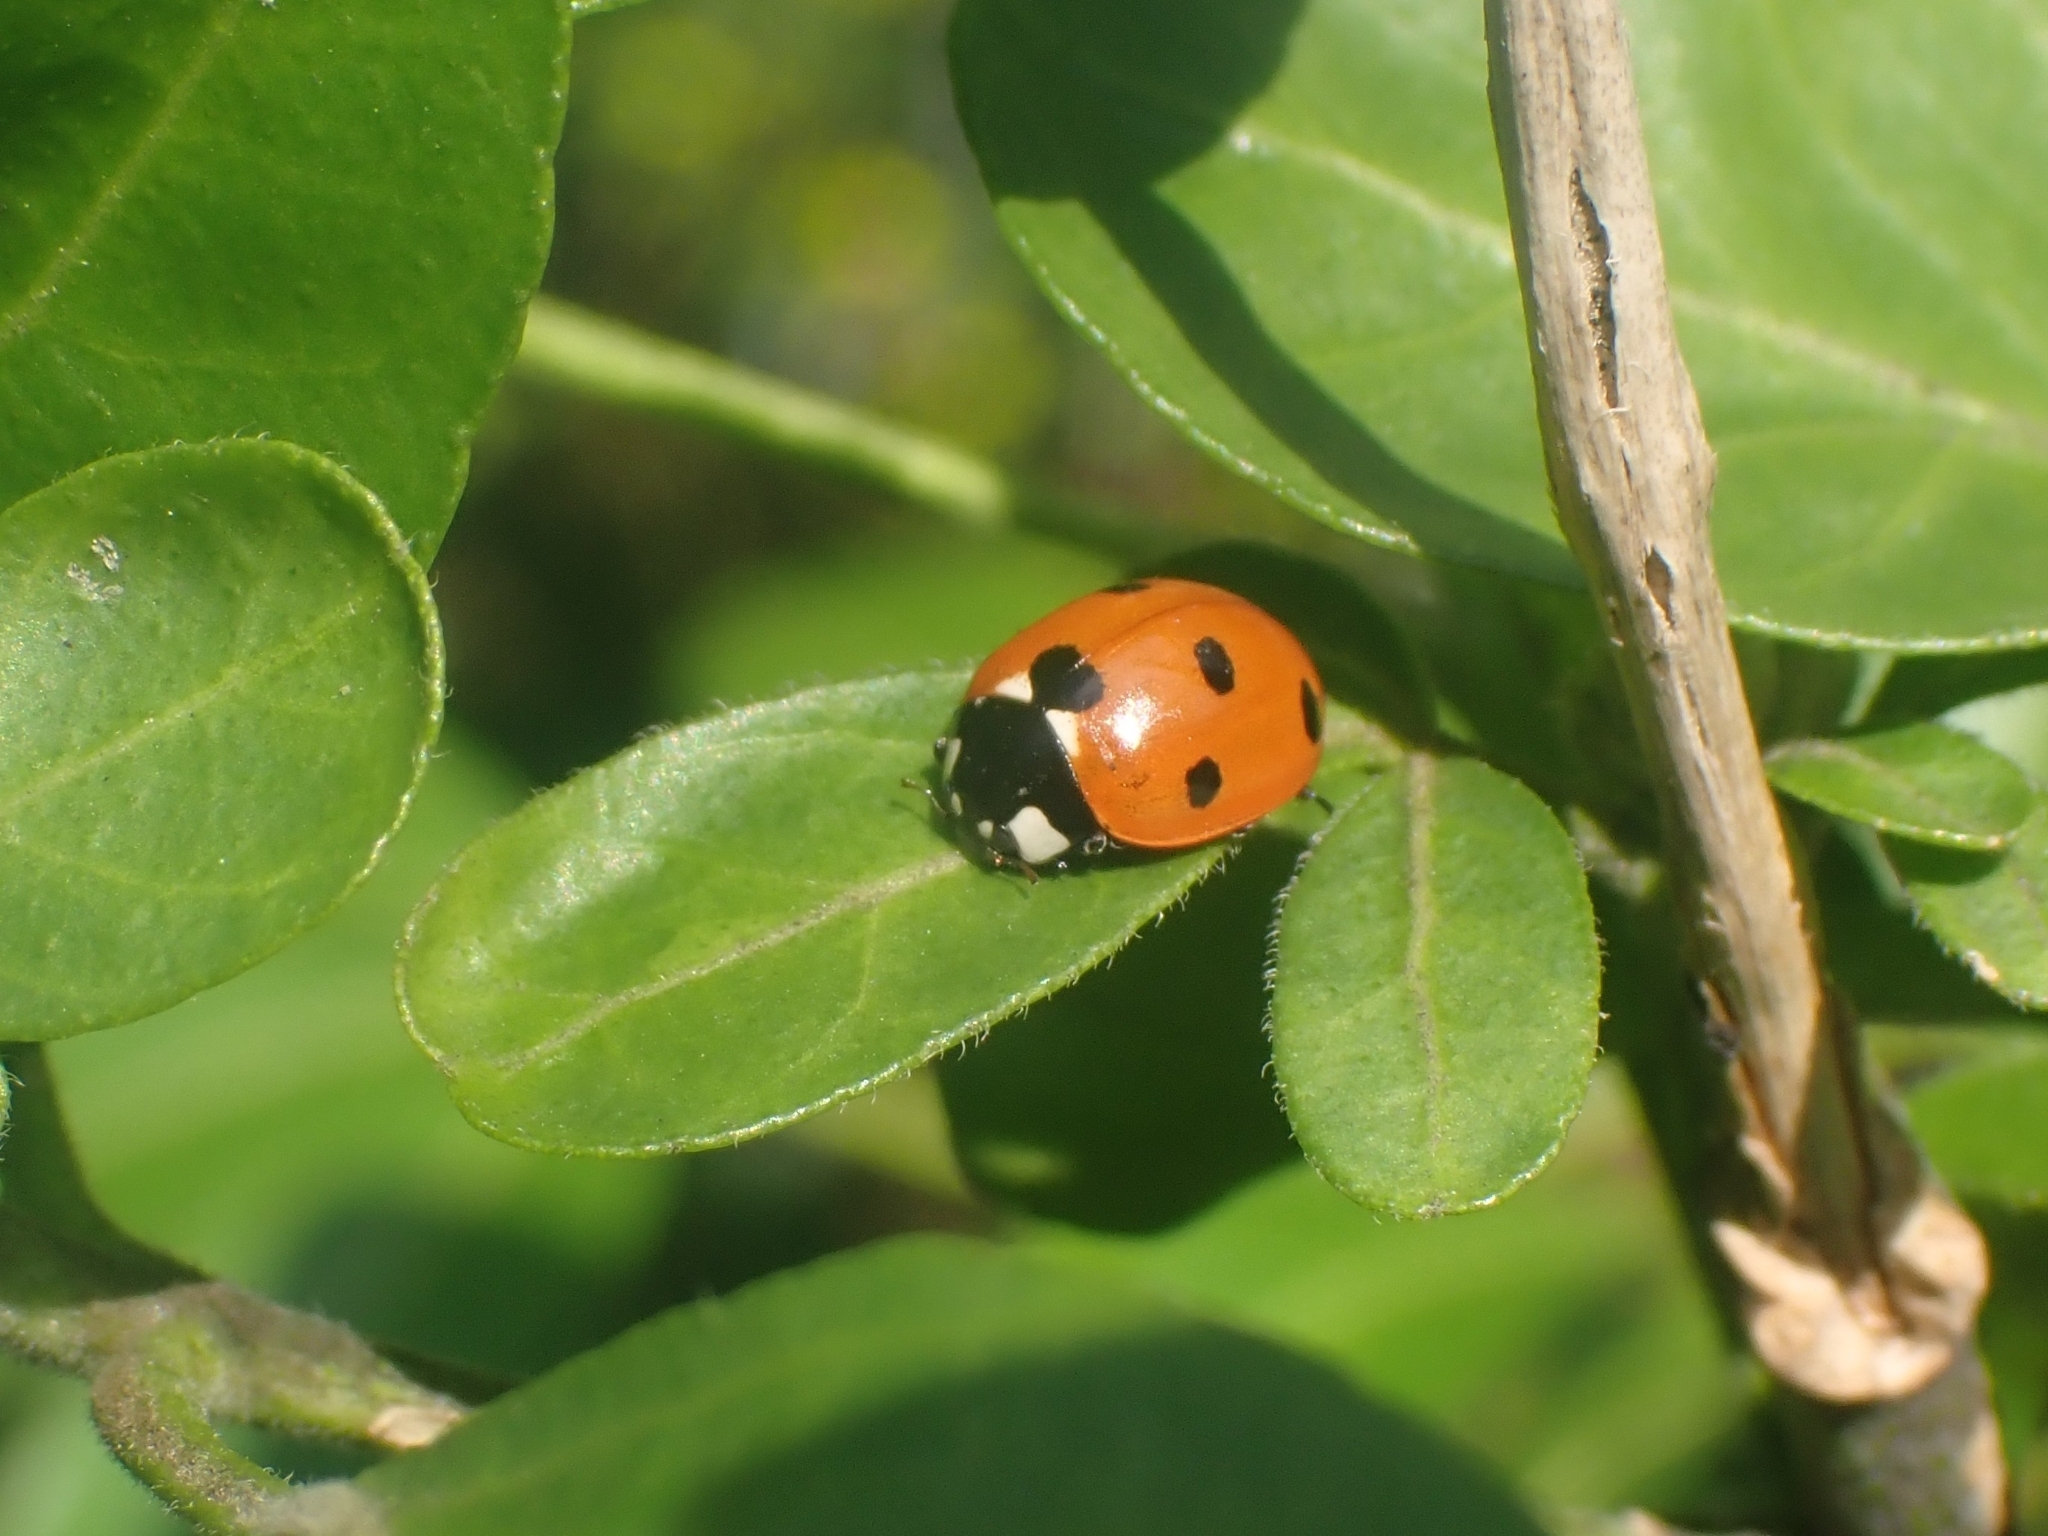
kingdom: Animalia
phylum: Arthropoda
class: Insecta
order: Coleoptera
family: Coccinellidae
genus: Coccinella
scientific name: Coccinella septempunctata
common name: Sevenspotted lady beetle
